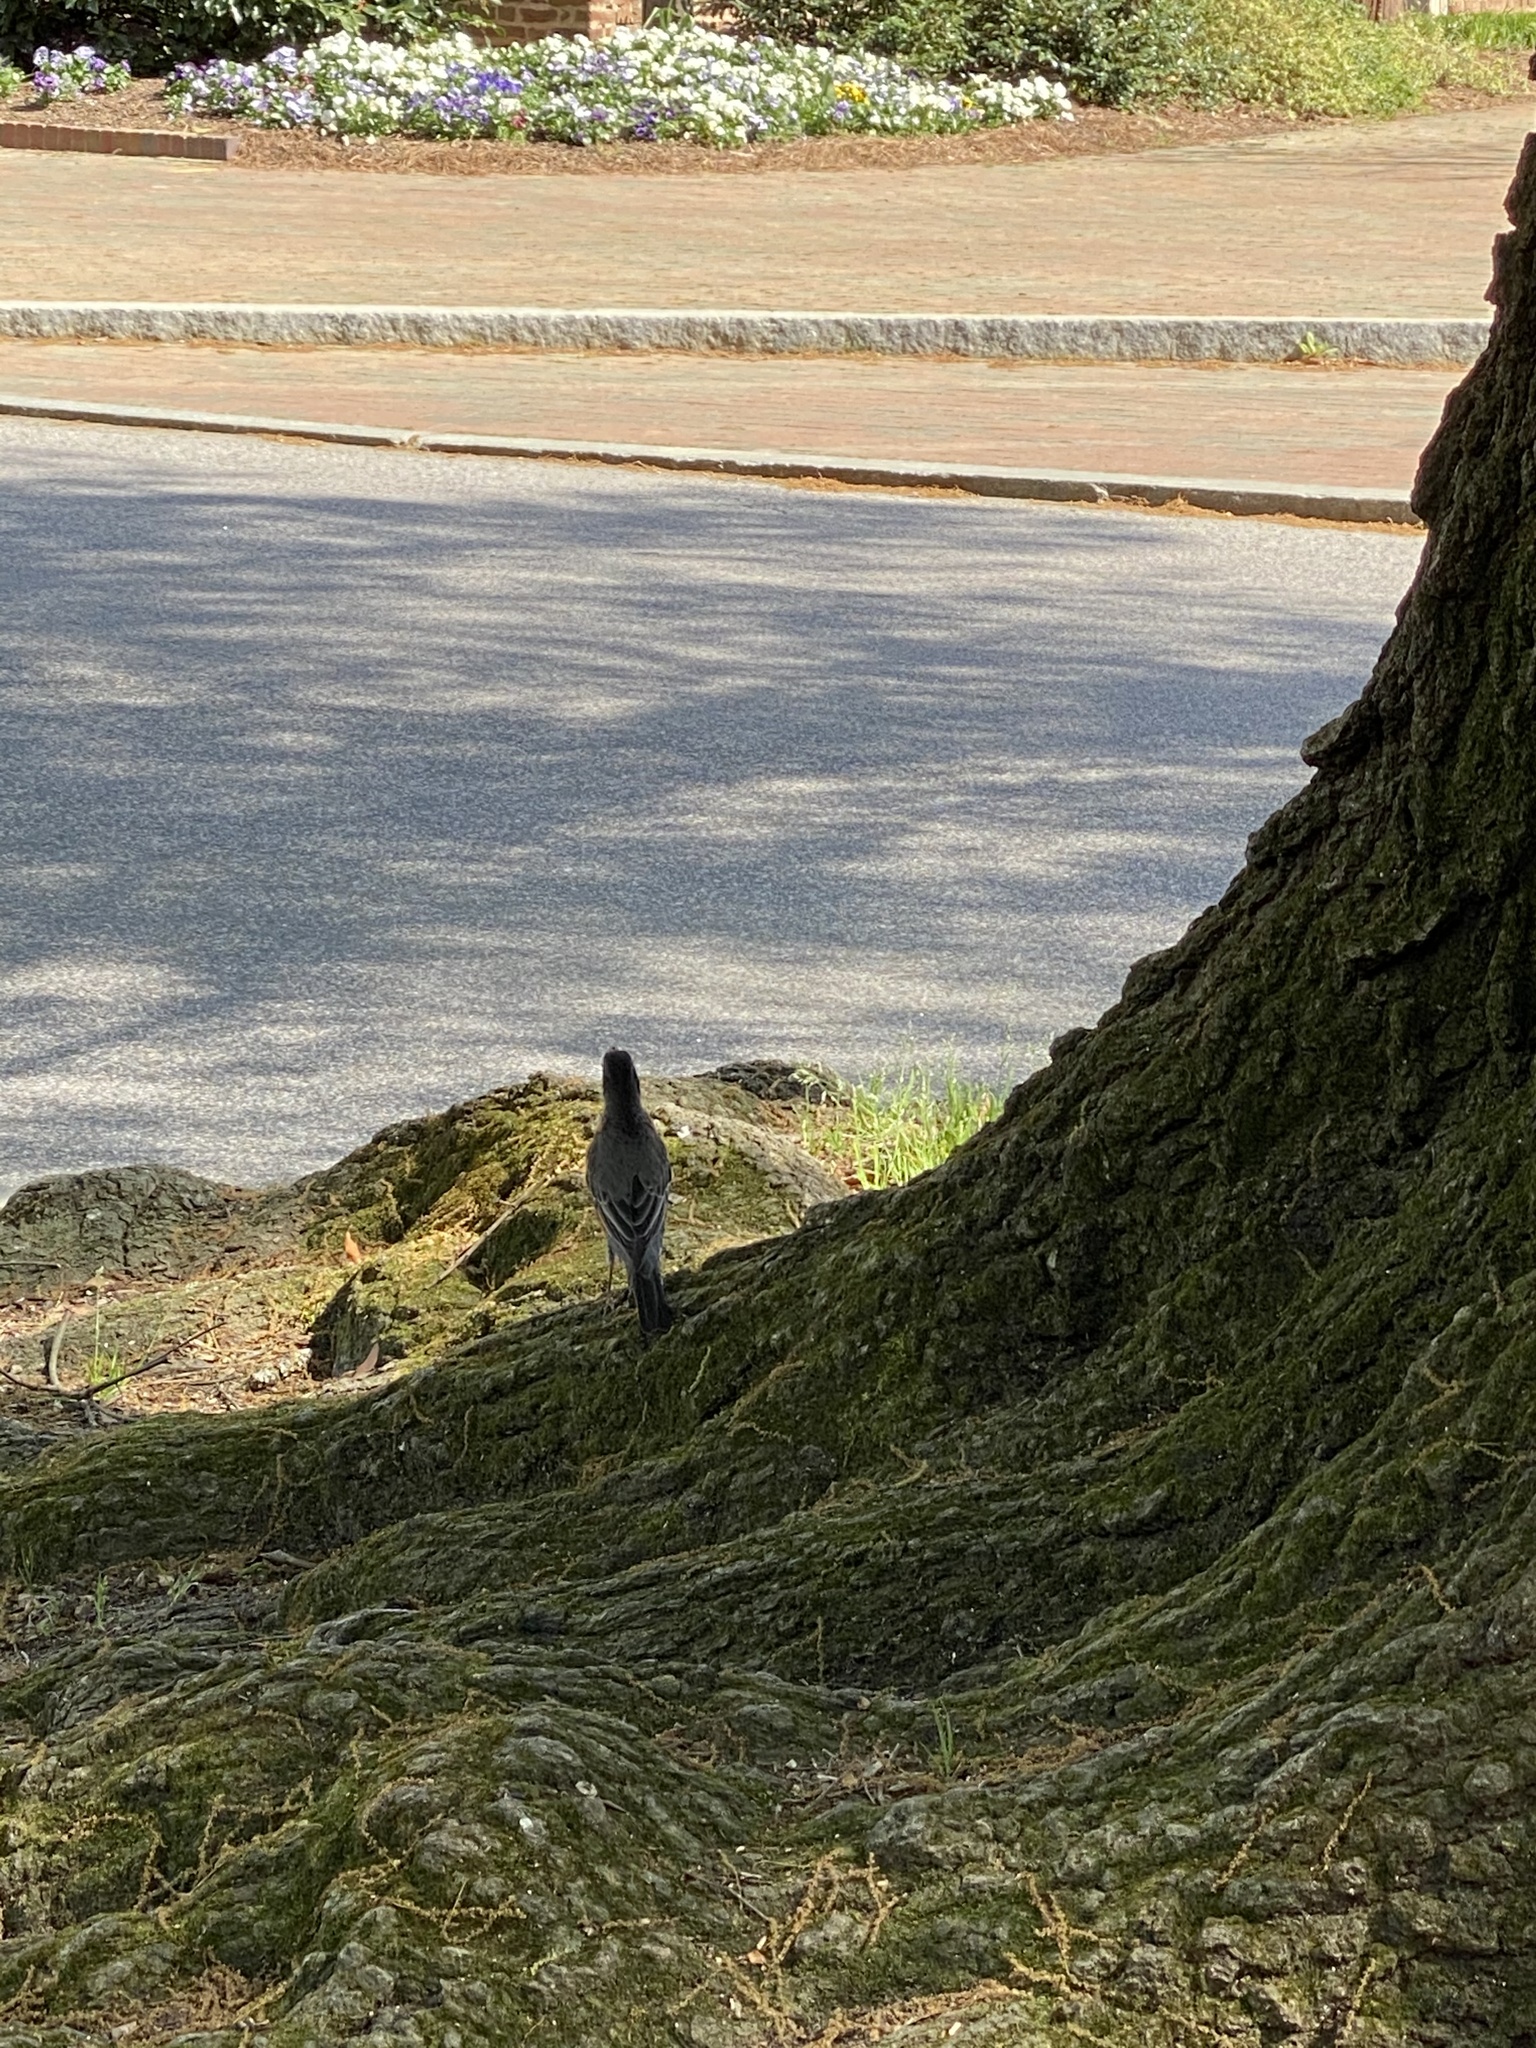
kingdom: Animalia
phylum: Chordata
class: Aves
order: Passeriformes
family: Turdidae
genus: Turdus
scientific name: Turdus migratorius
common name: American robin
